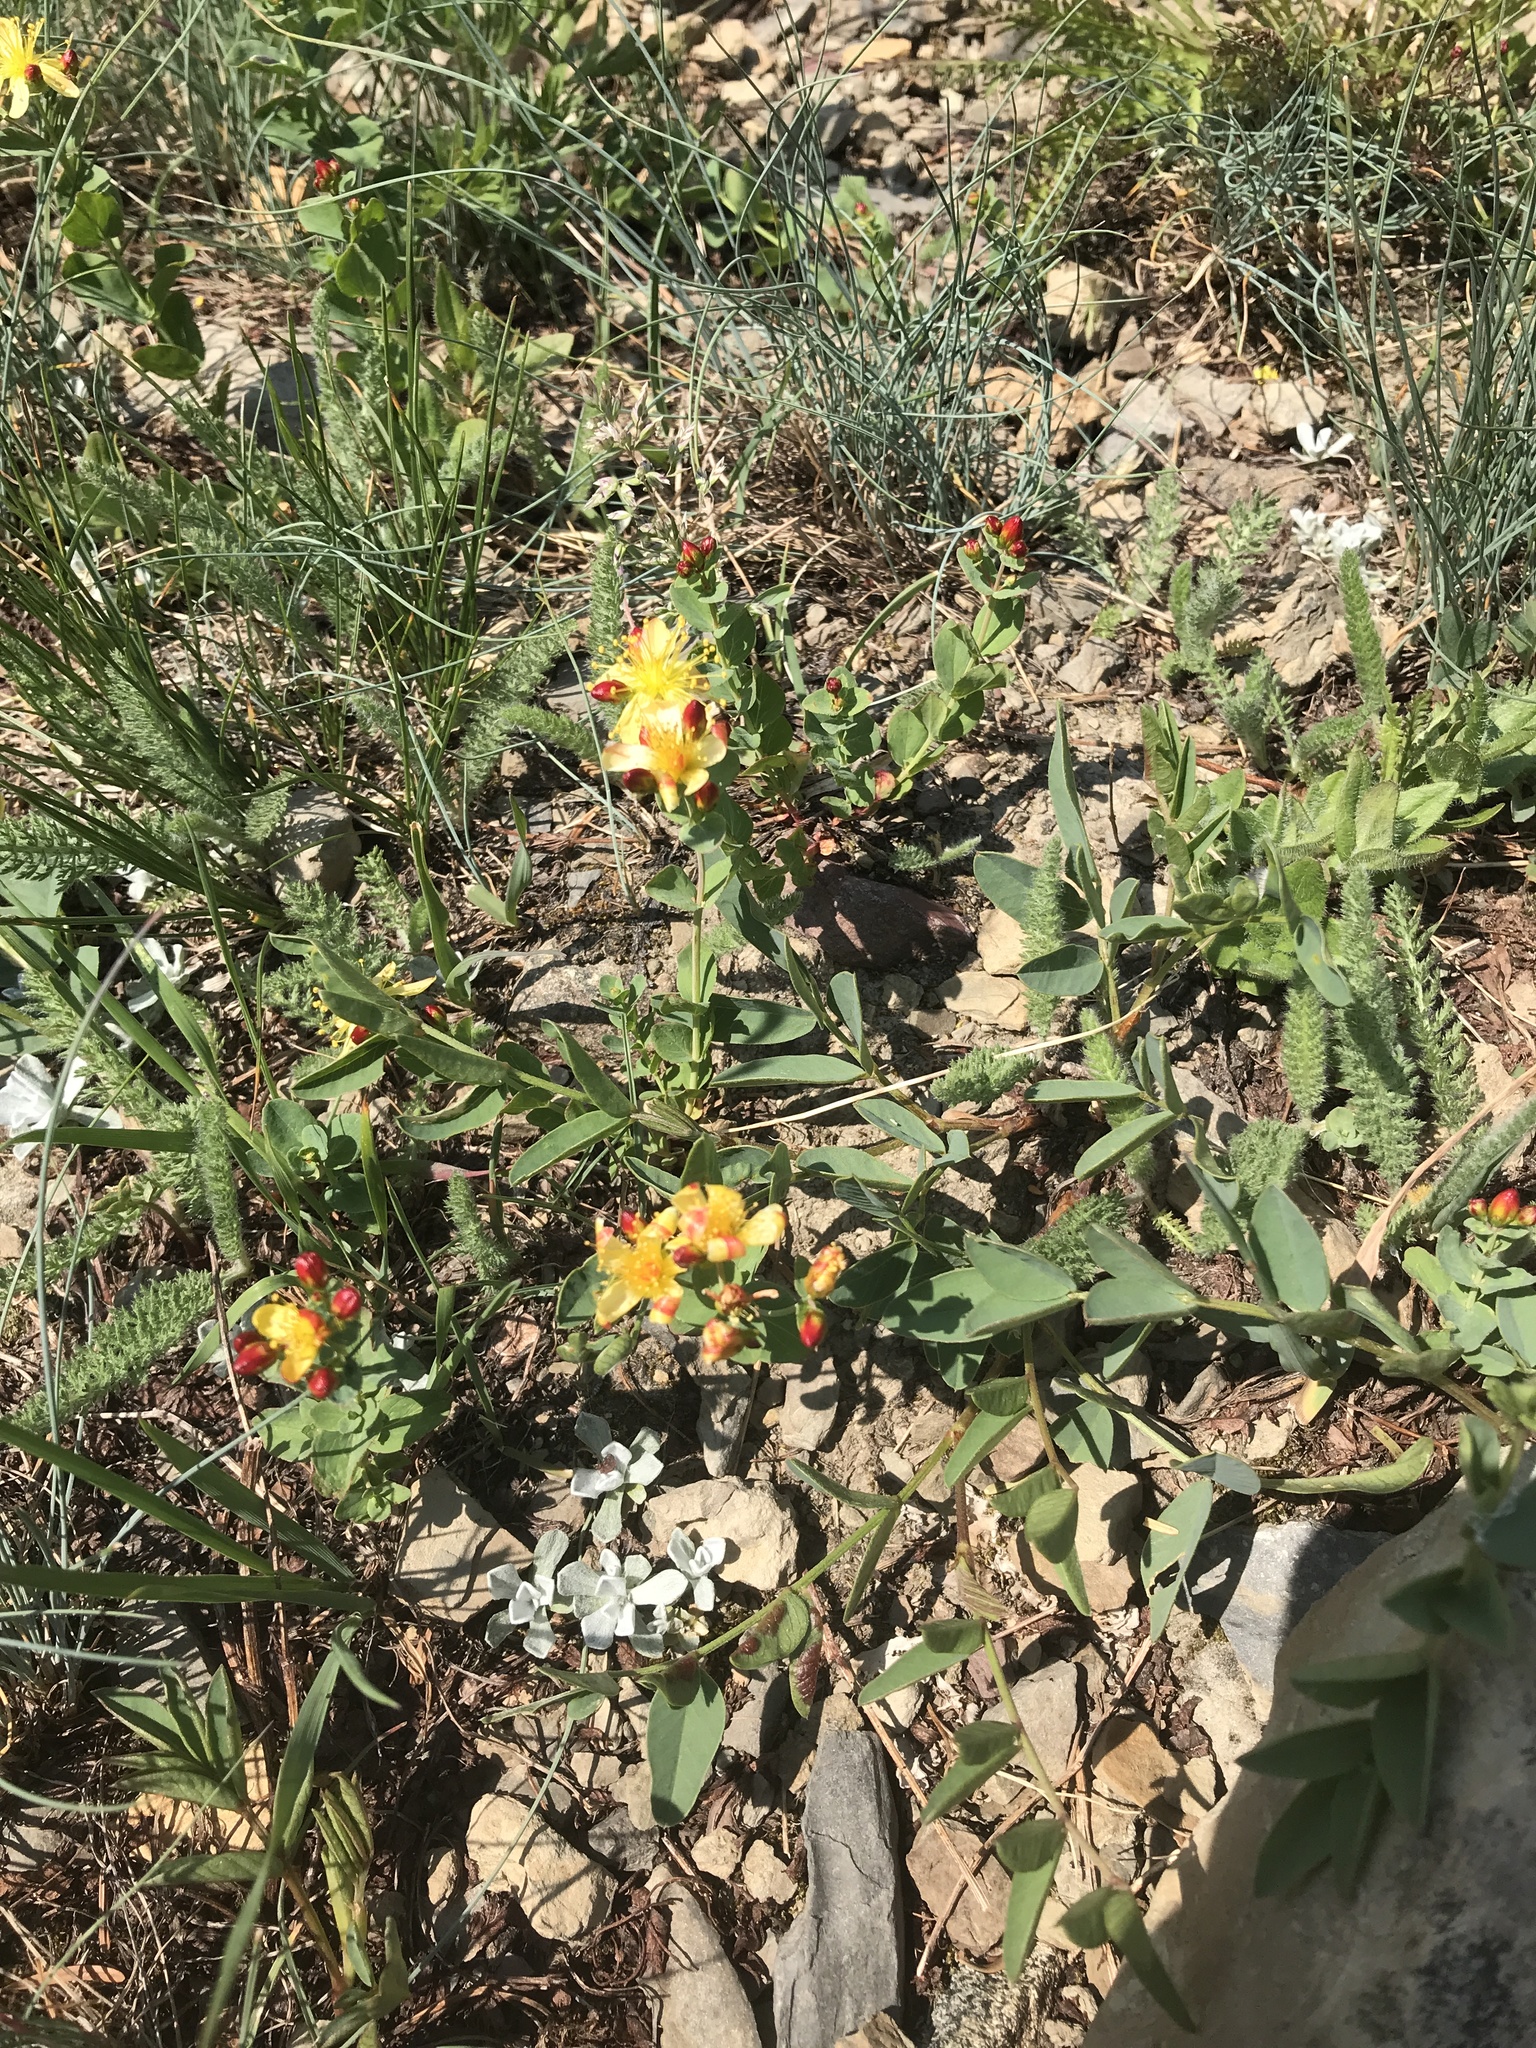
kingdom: Plantae
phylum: Tracheophyta
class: Magnoliopsida
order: Malpighiales
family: Hypericaceae
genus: Hypericum
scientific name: Hypericum scouleri
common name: Scouler's st. john's-wort
